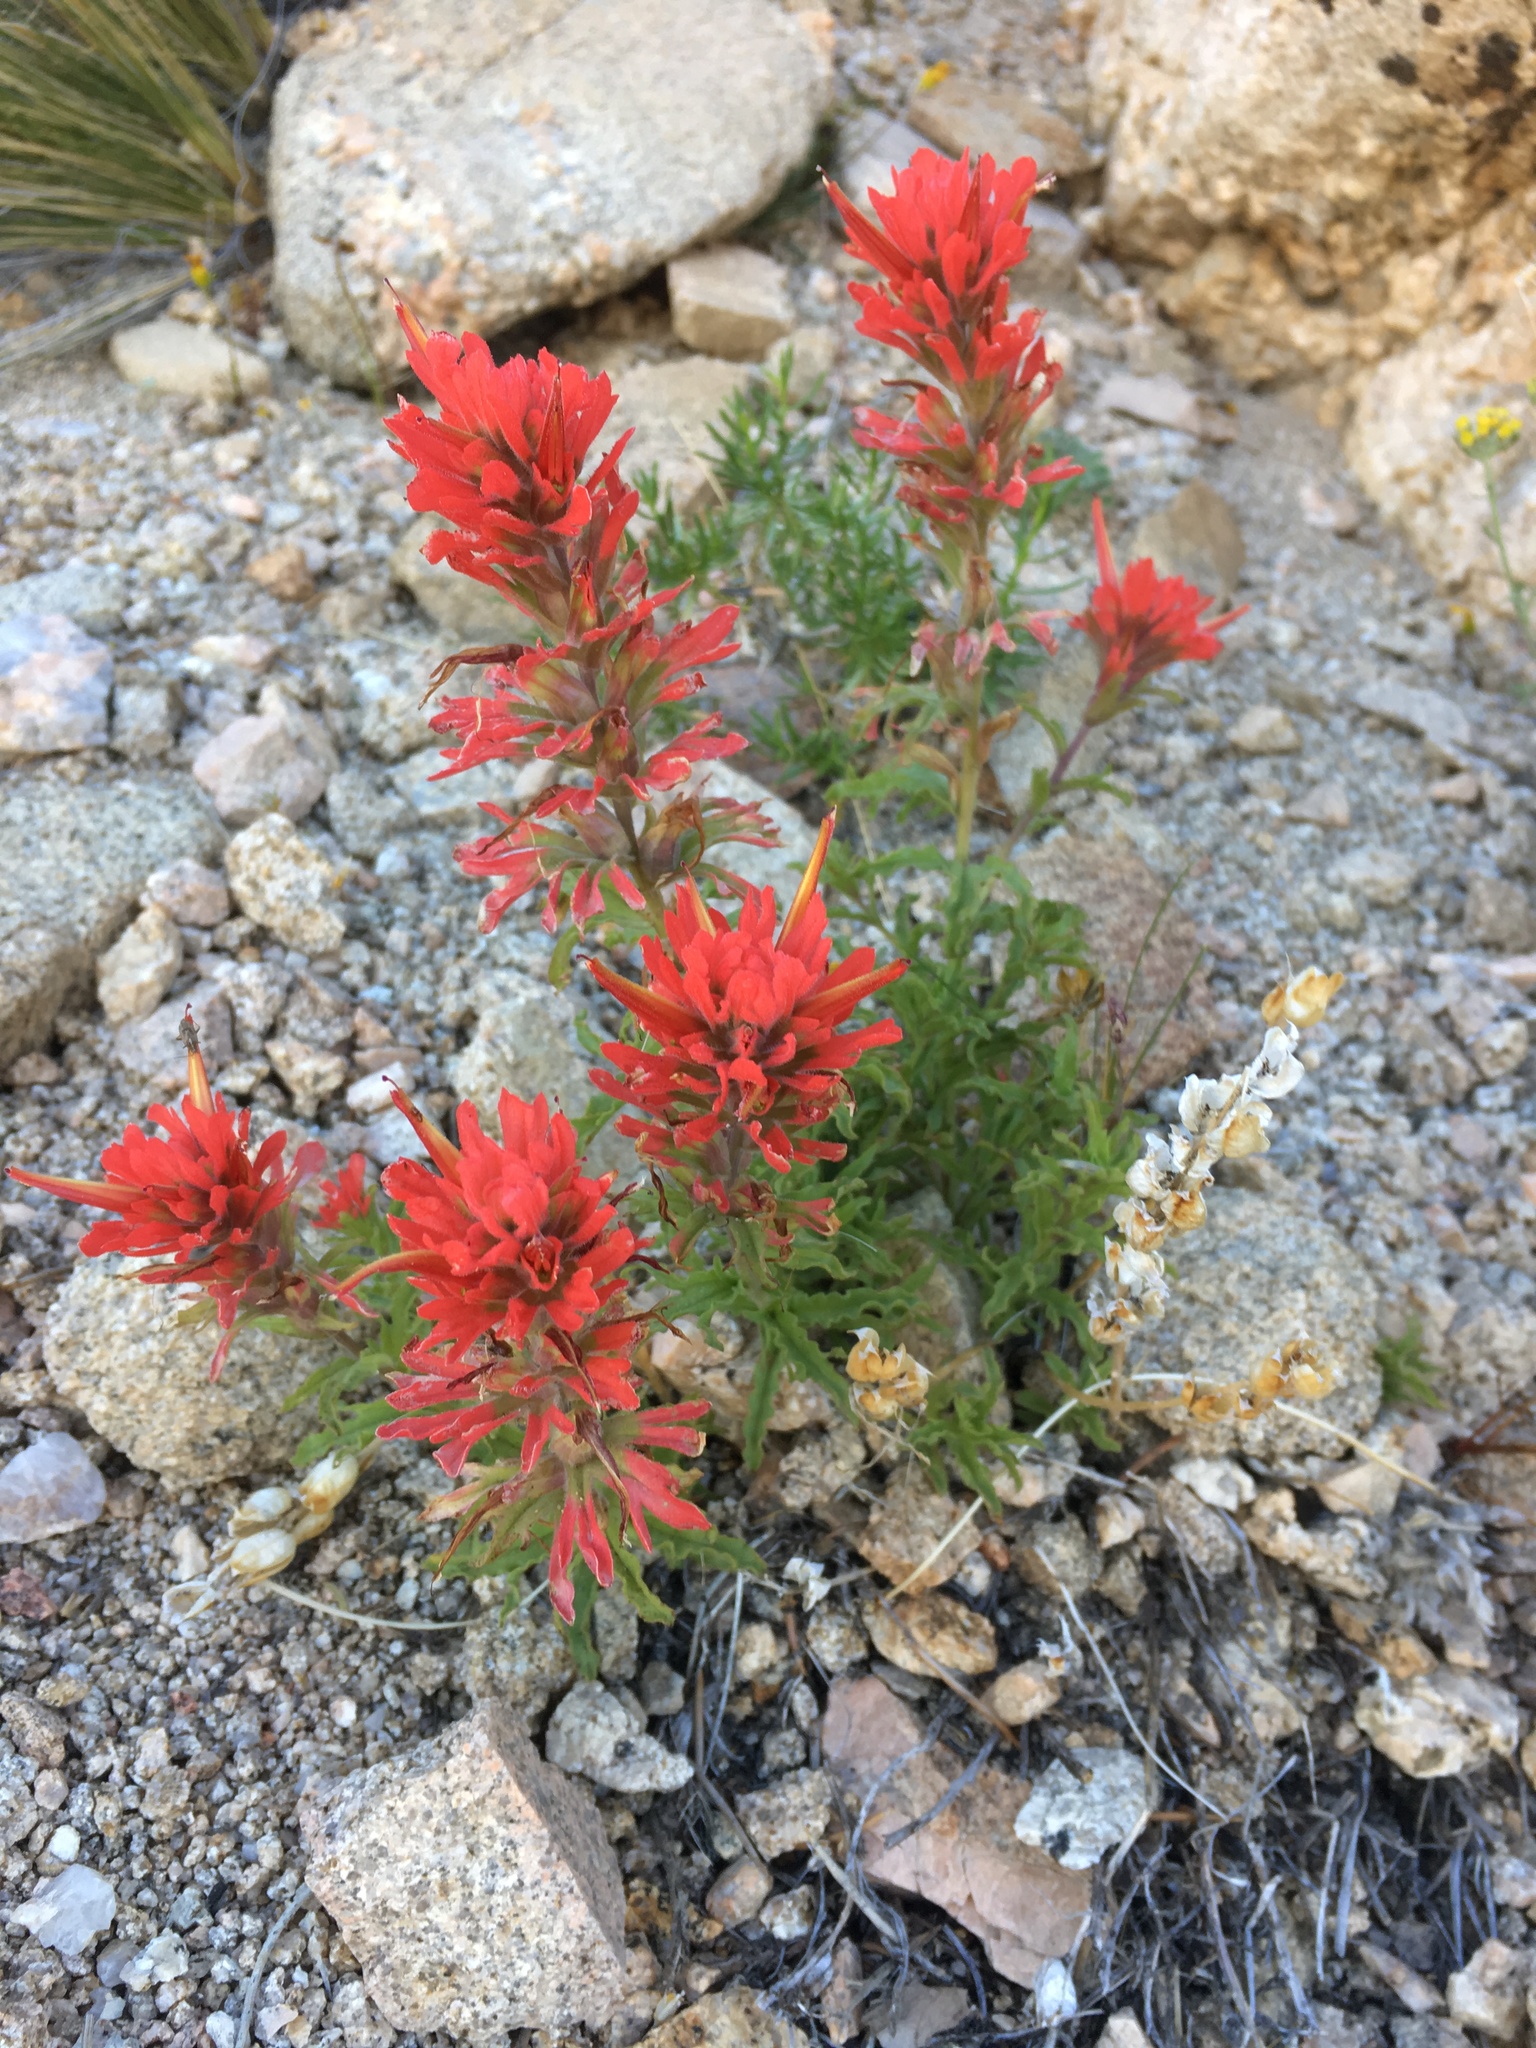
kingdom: Plantae
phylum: Tracheophyta
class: Magnoliopsida
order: Lamiales
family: Orobanchaceae
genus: Castilleja
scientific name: Castilleja martini
